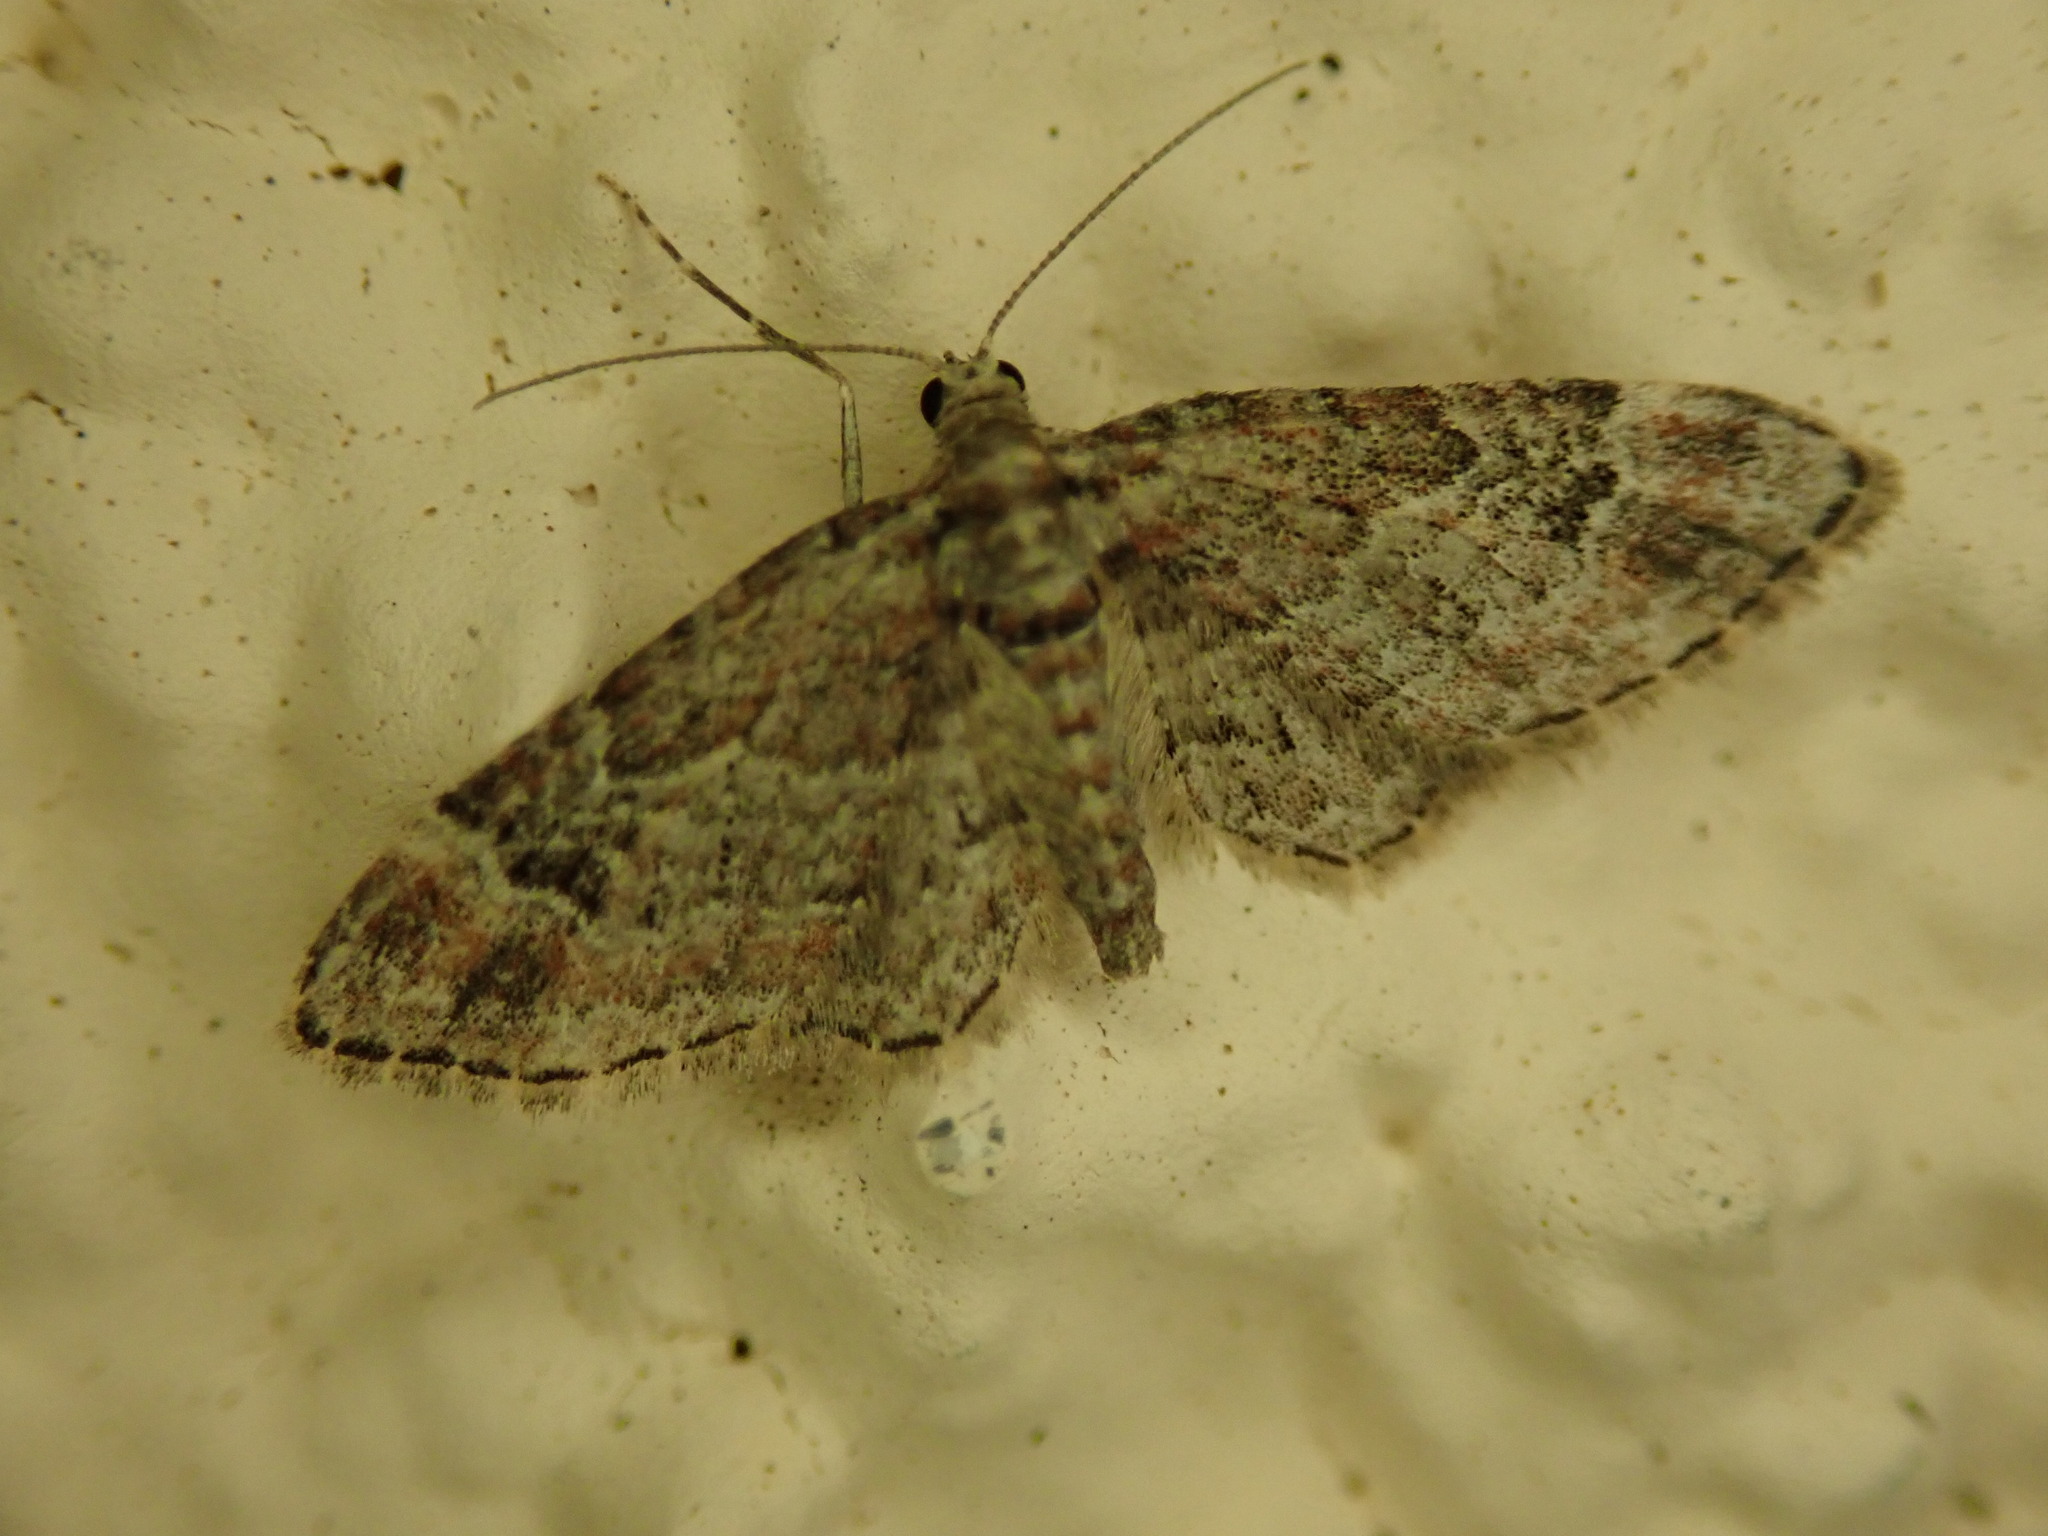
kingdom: Animalia
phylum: Arthropoda
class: Insecta
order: Lepidoptera
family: Geometridae
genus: Gymnoscelis
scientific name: Gymnoscelis rufifasciata
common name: Double-striped pug
